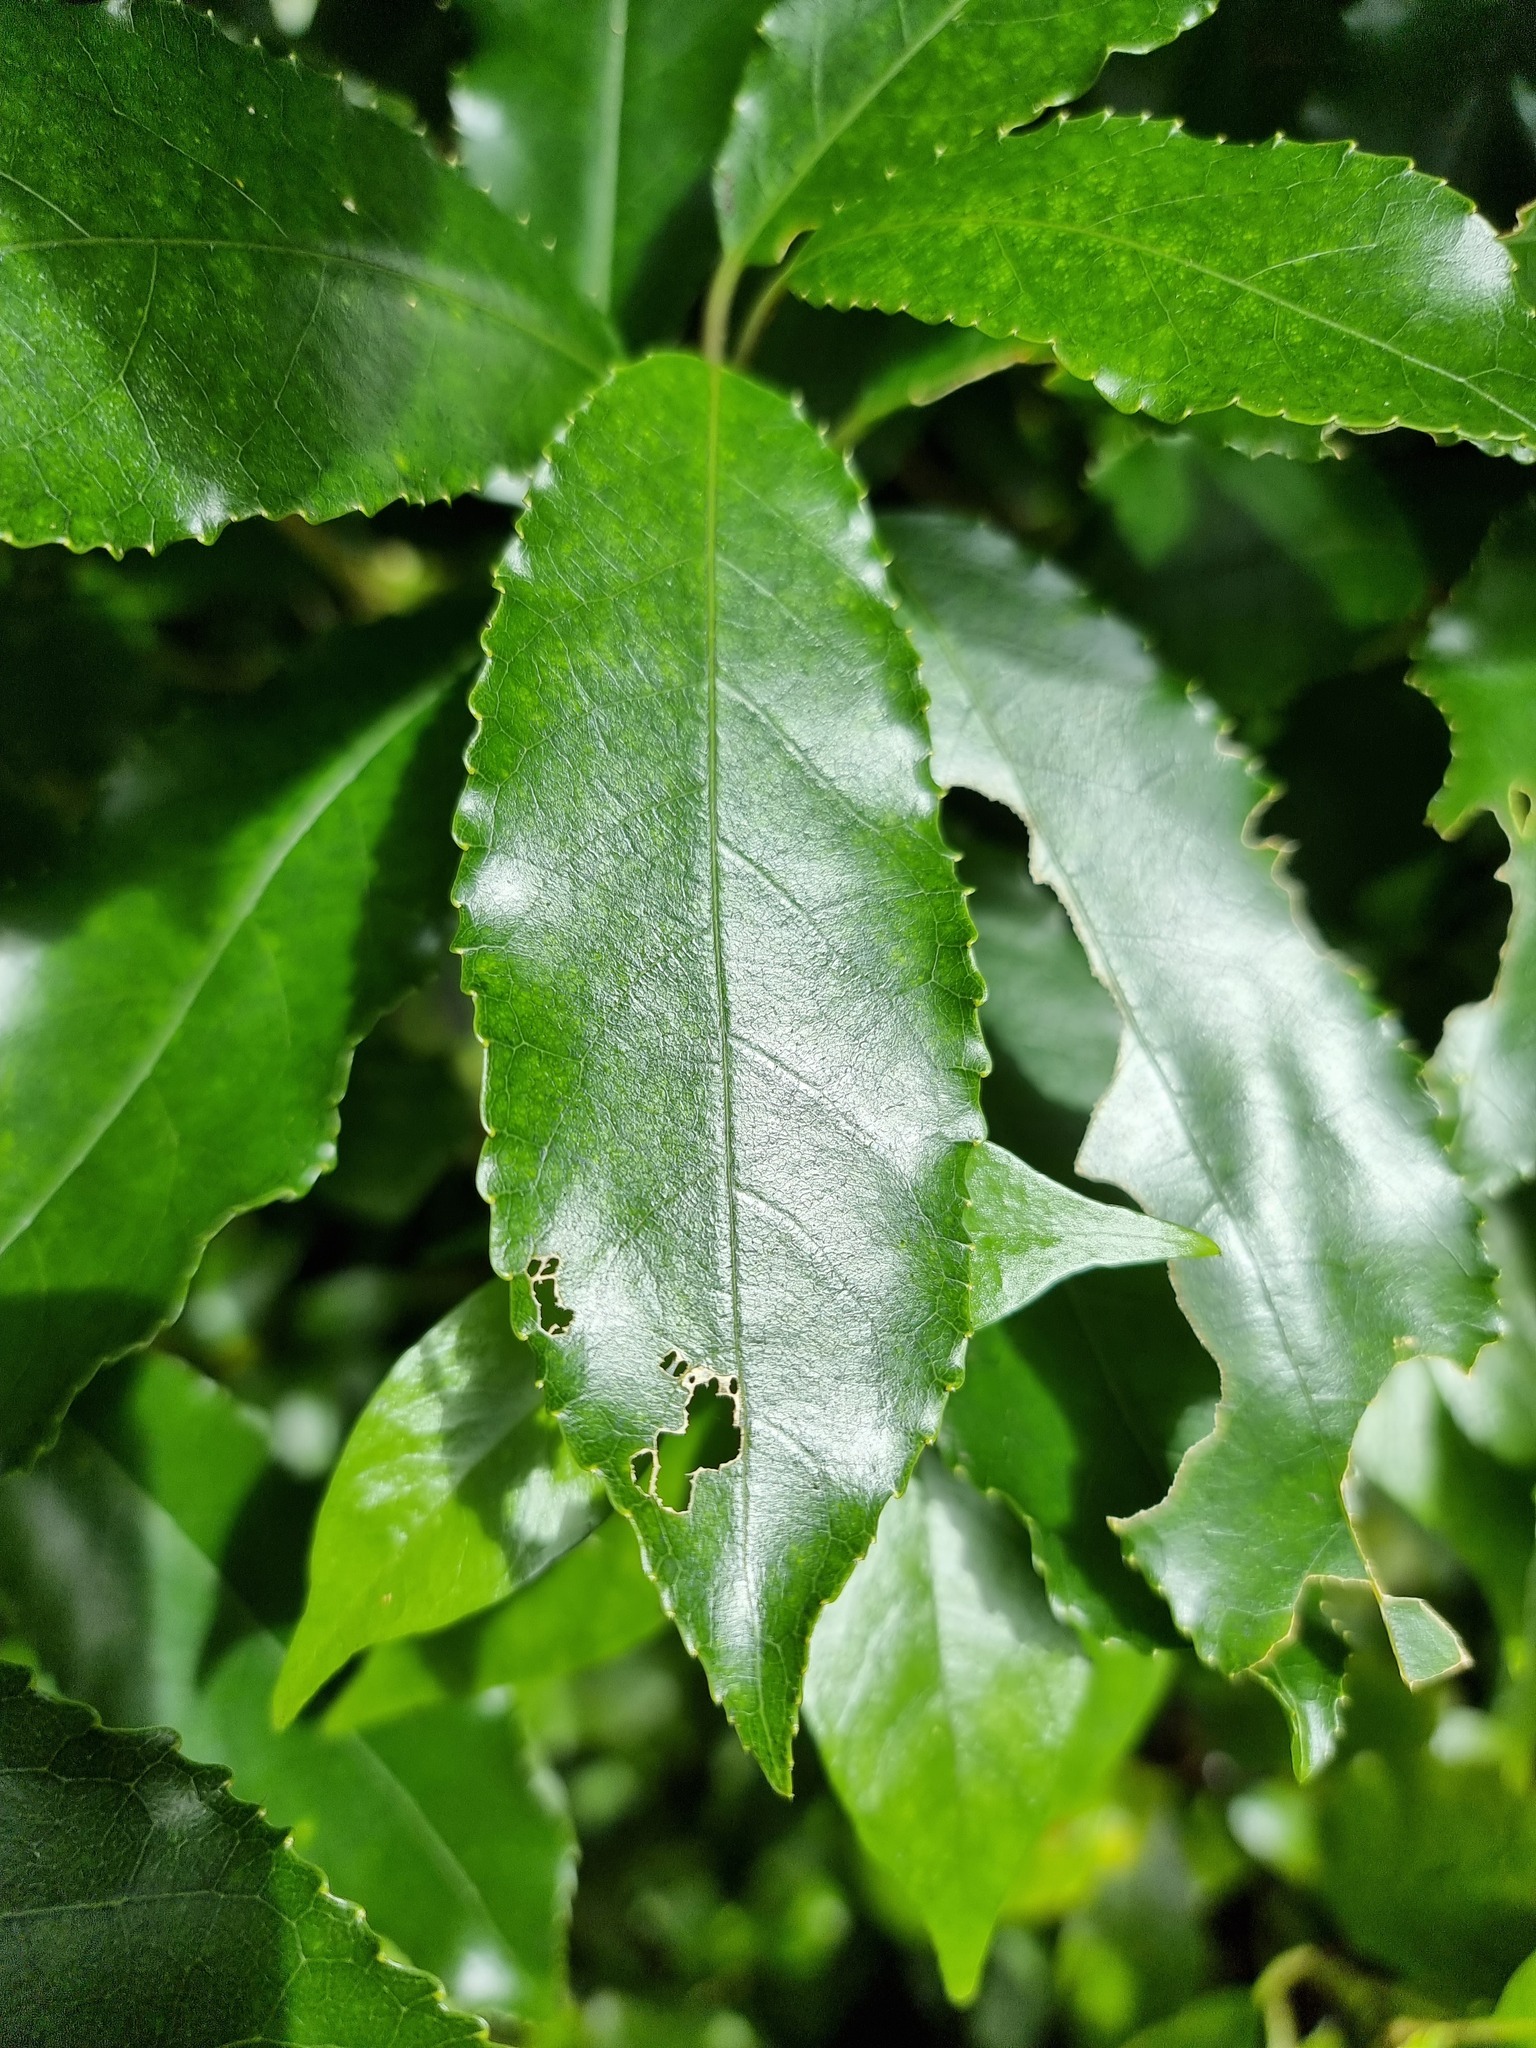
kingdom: Plantae
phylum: Tracheophyta
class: Magnoliopsida
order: Malpighiales
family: Violaceae
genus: Melicytus
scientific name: Melicytus ramiflorus
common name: Mahoe
